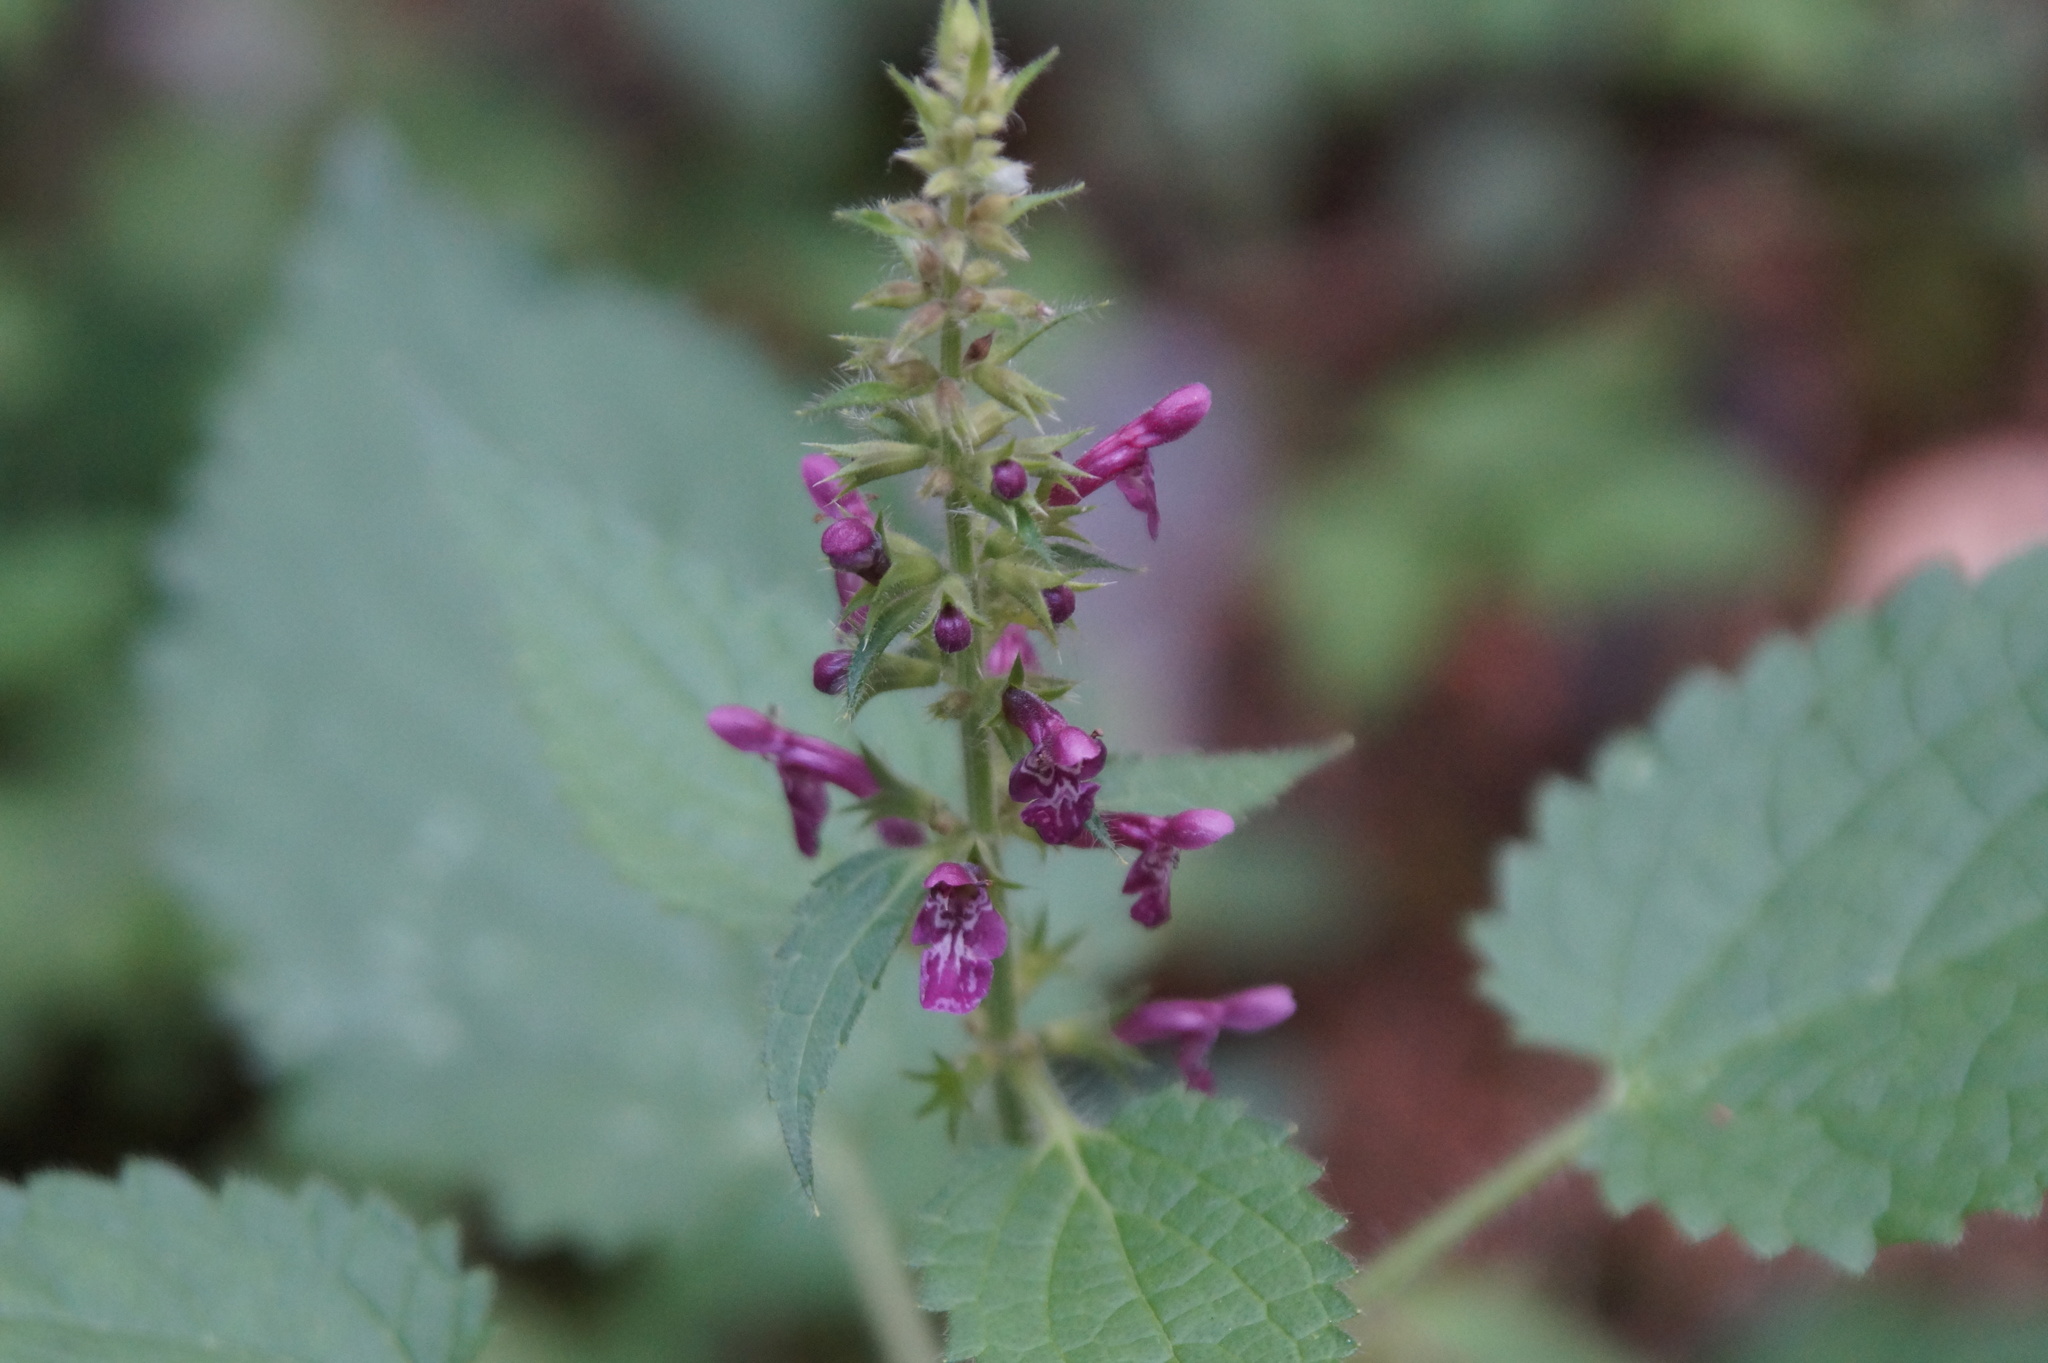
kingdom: Plantae
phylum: Tracheophyta
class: Magnoliopsida
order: Lamiales
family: Lamiaceae
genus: Stachys
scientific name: Stachys sylvatica
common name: Hedge woundwort
